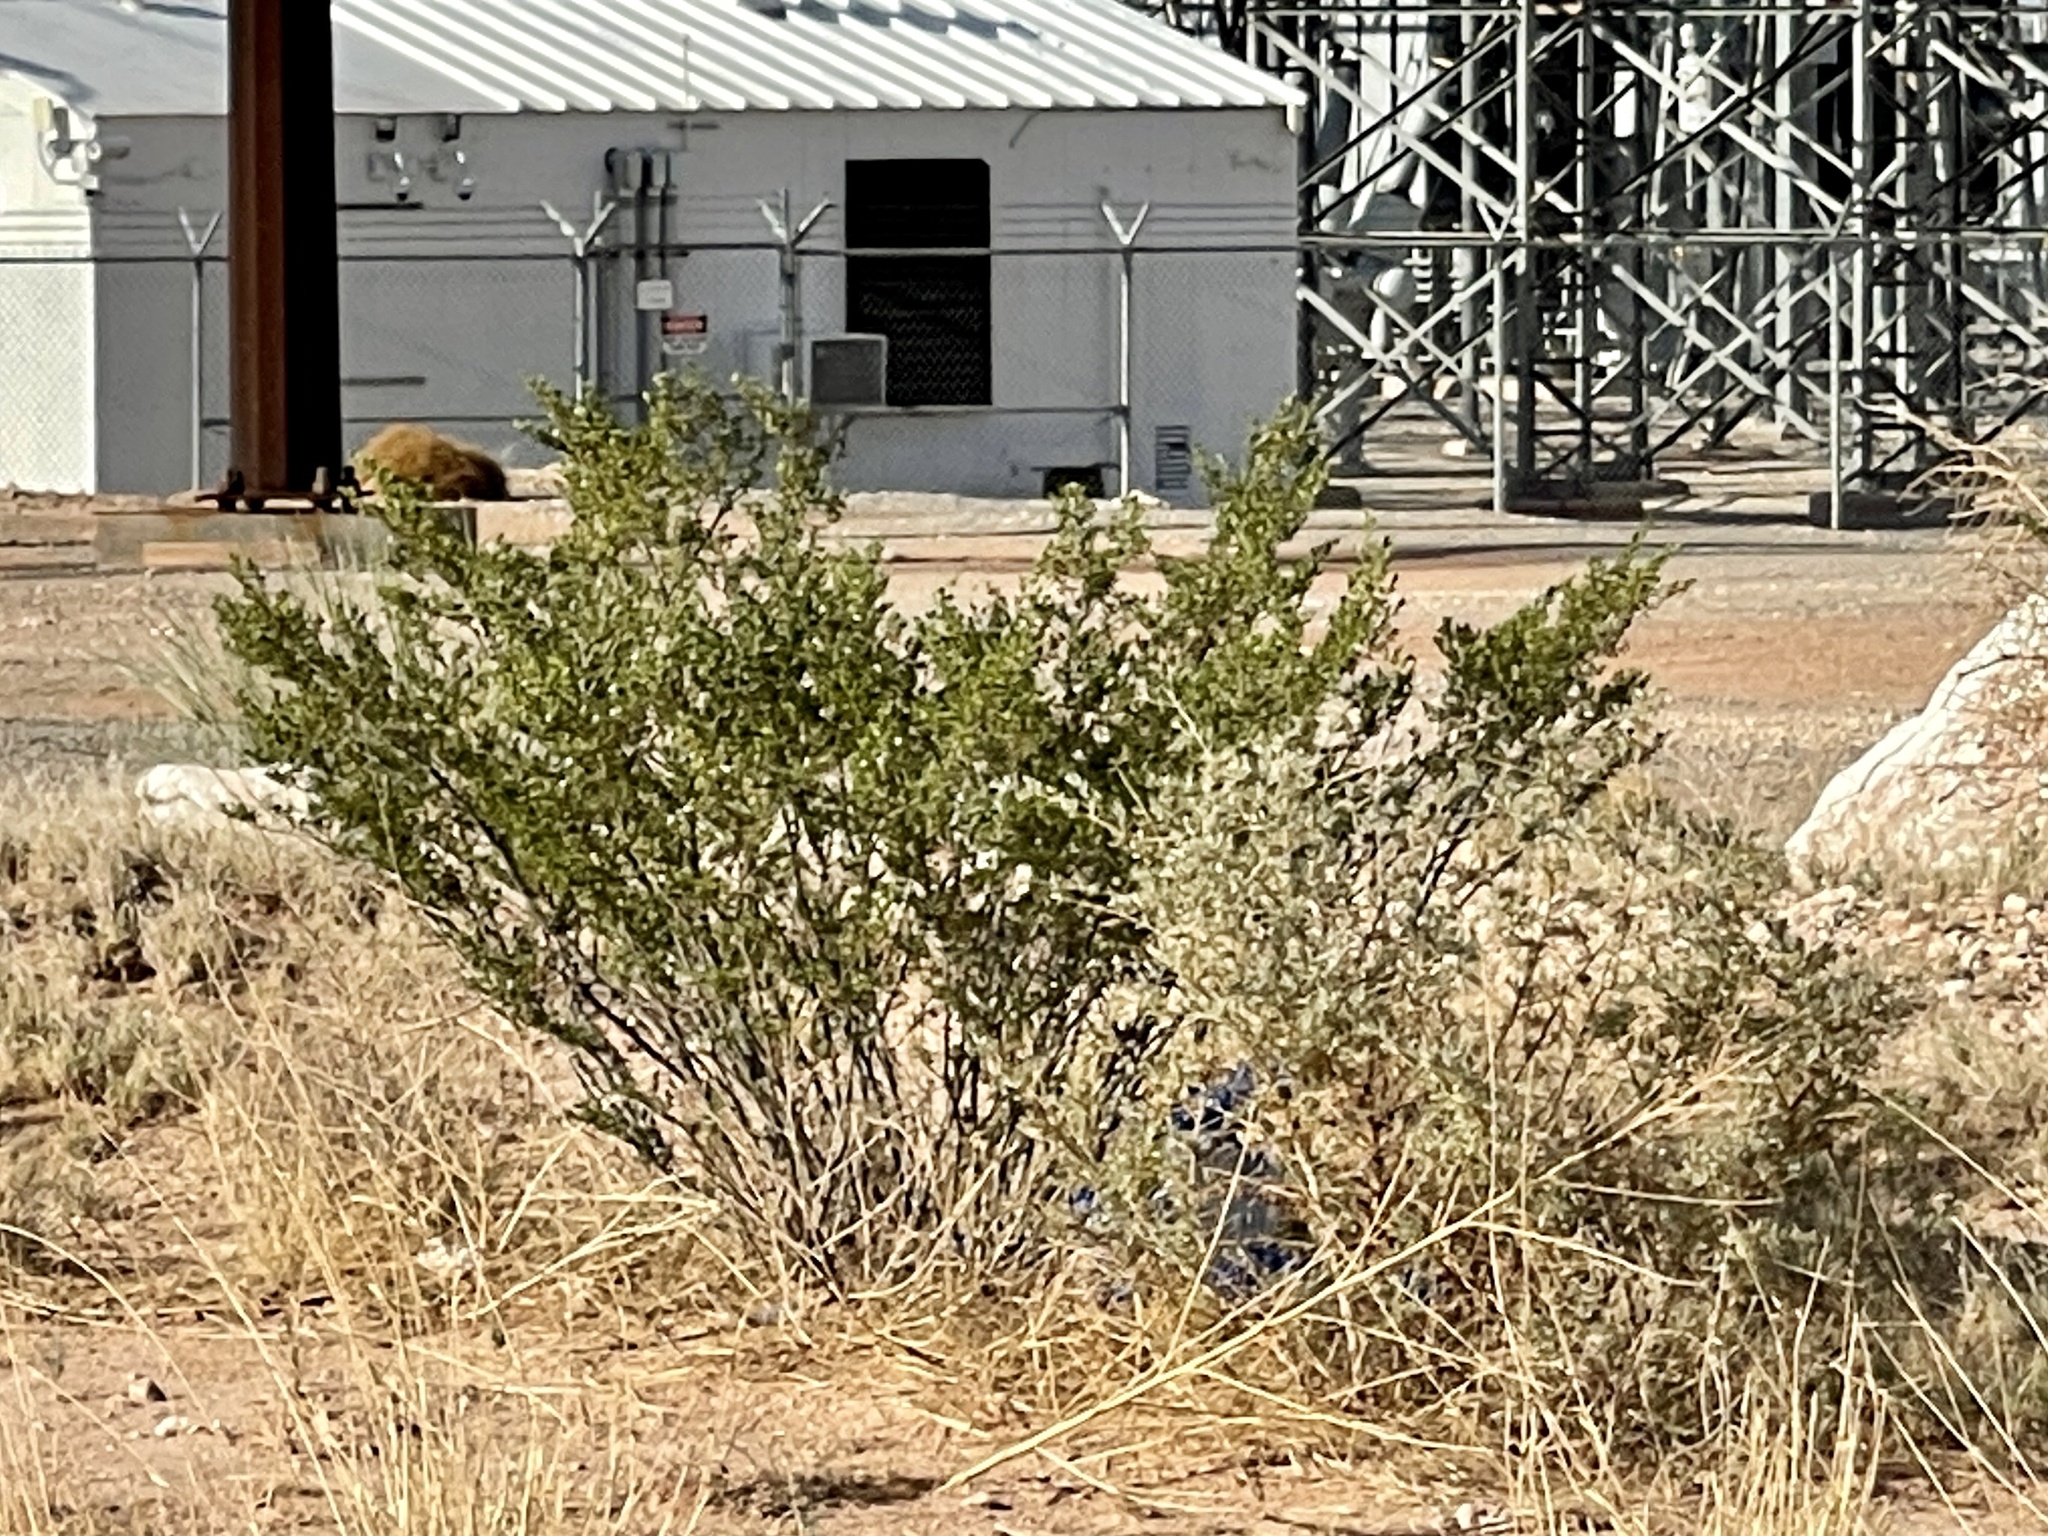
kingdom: Plantae
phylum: Tracheophyta
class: Magnoliopsida
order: Zygophyllales
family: Zygophyllaceae
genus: Larrea
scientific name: Larrea tridentata
